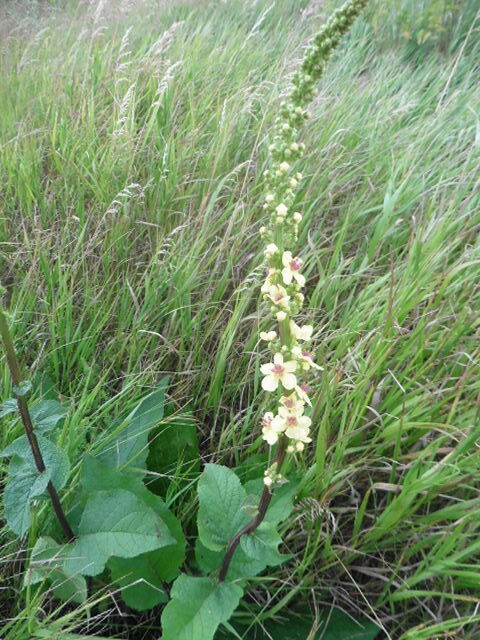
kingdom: Plantae
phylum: Tracheophyta
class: Magnoliopsida
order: Lamiales
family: Scrophulariaceae
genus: Verbascum
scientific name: Verbascum nigrum
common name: Dark mullein
